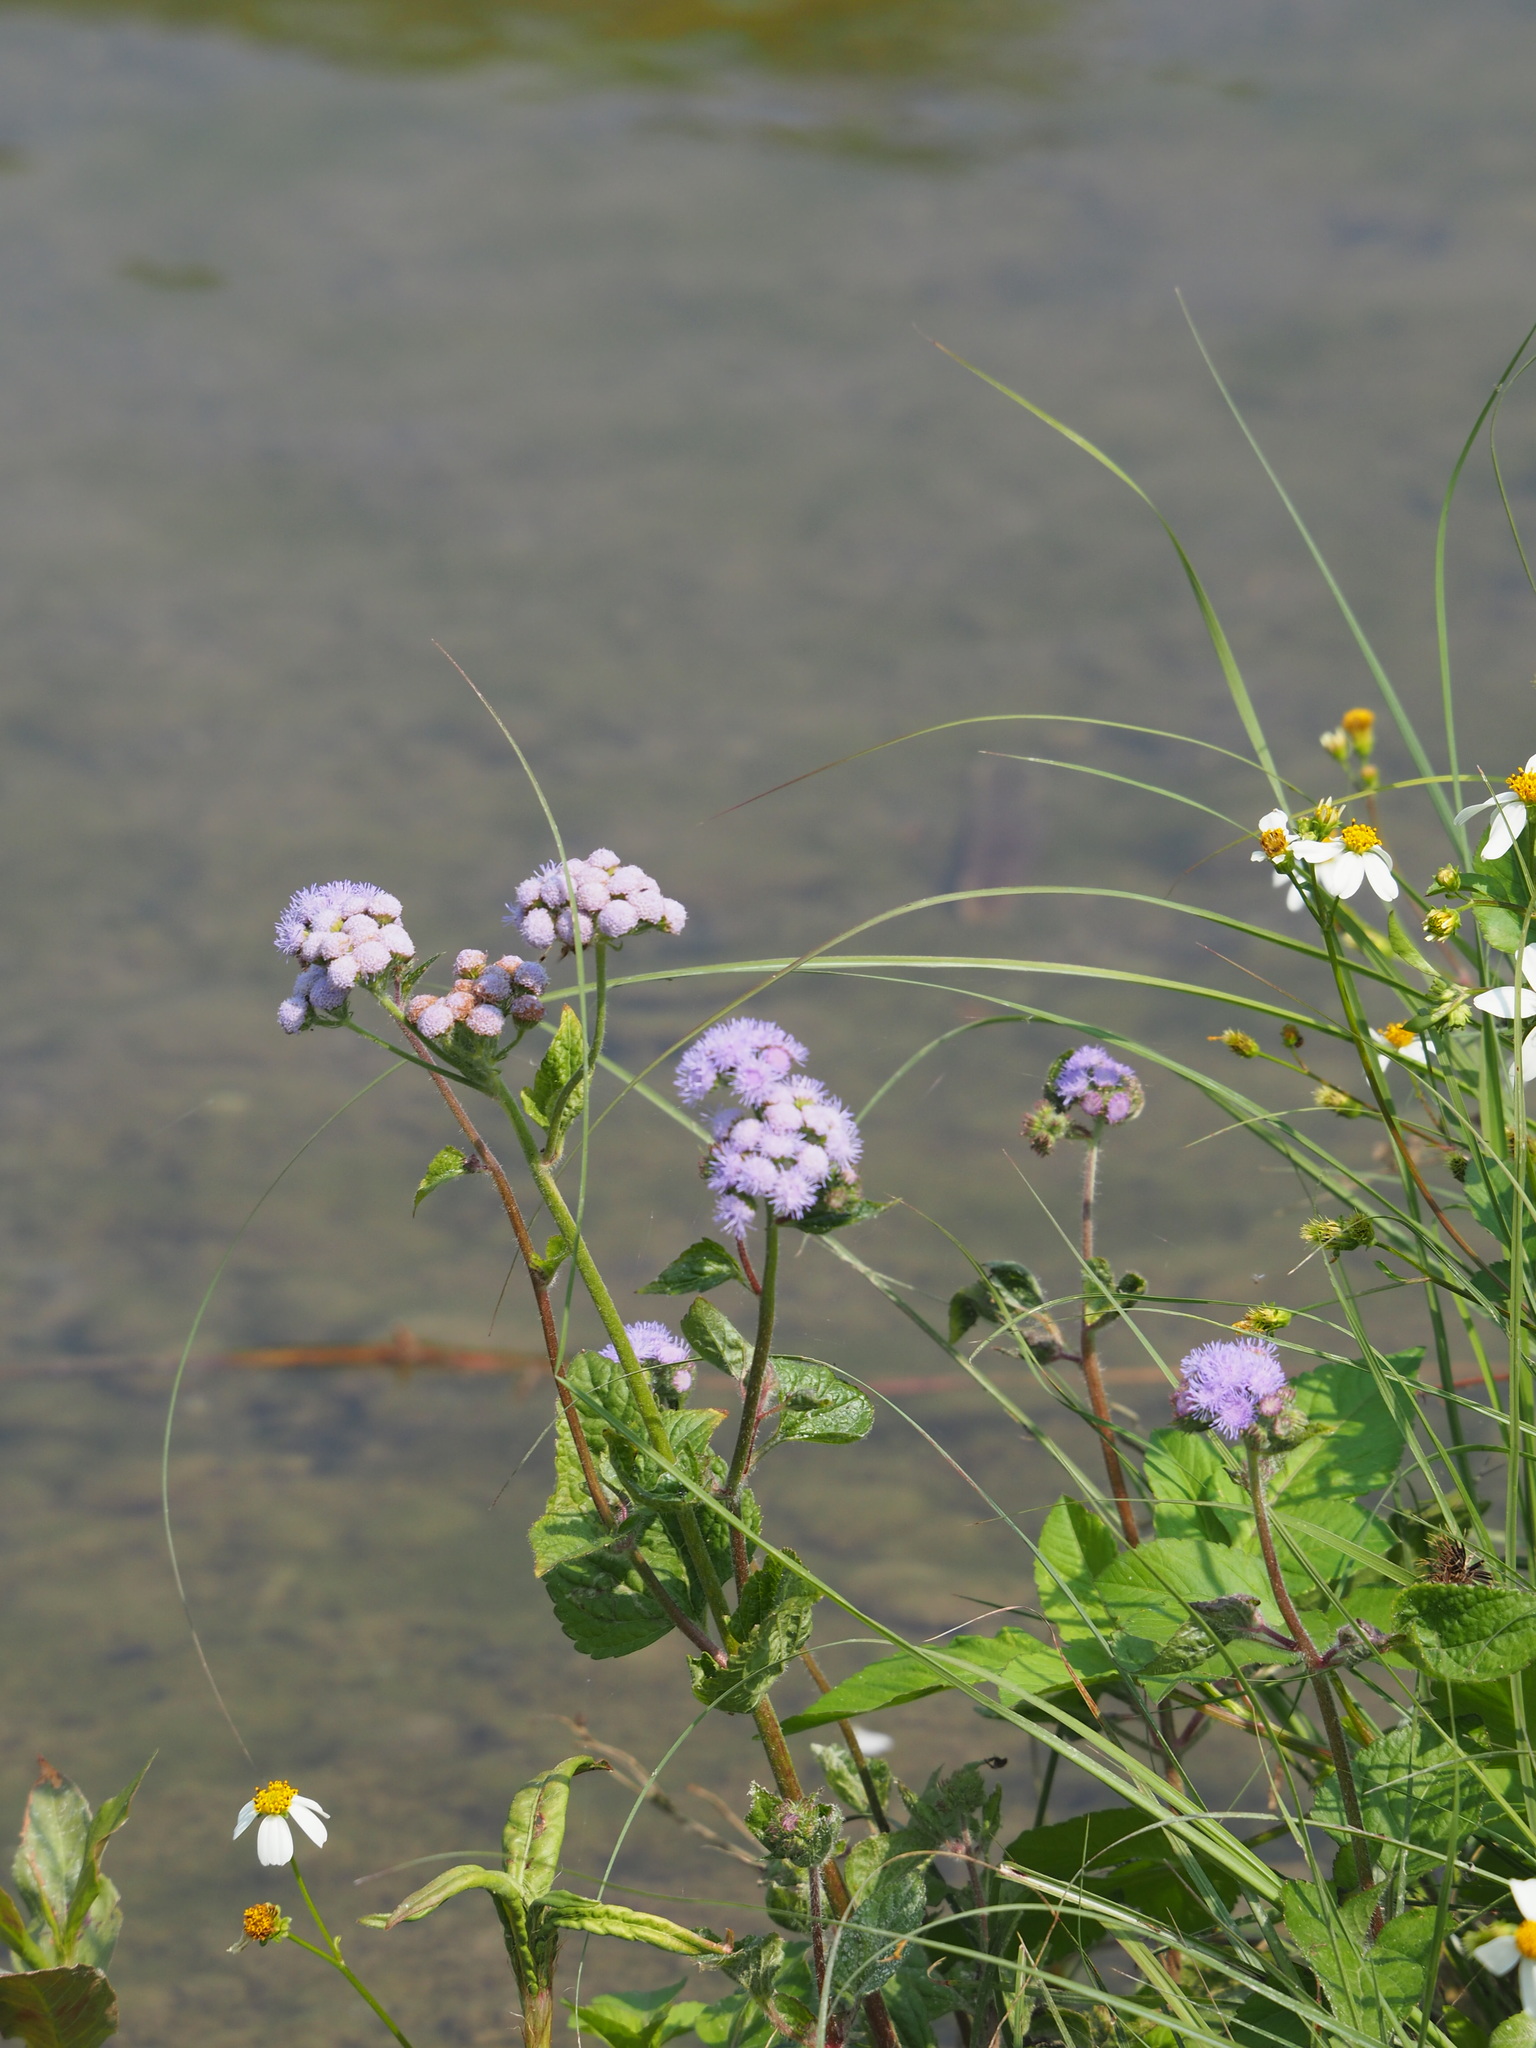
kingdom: Plantae
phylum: Tracheophyta
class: Magnoliopsida
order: Asterales
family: Asteraceae
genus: Ageratum
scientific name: Ageratum houstonianum
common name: Bluemink
